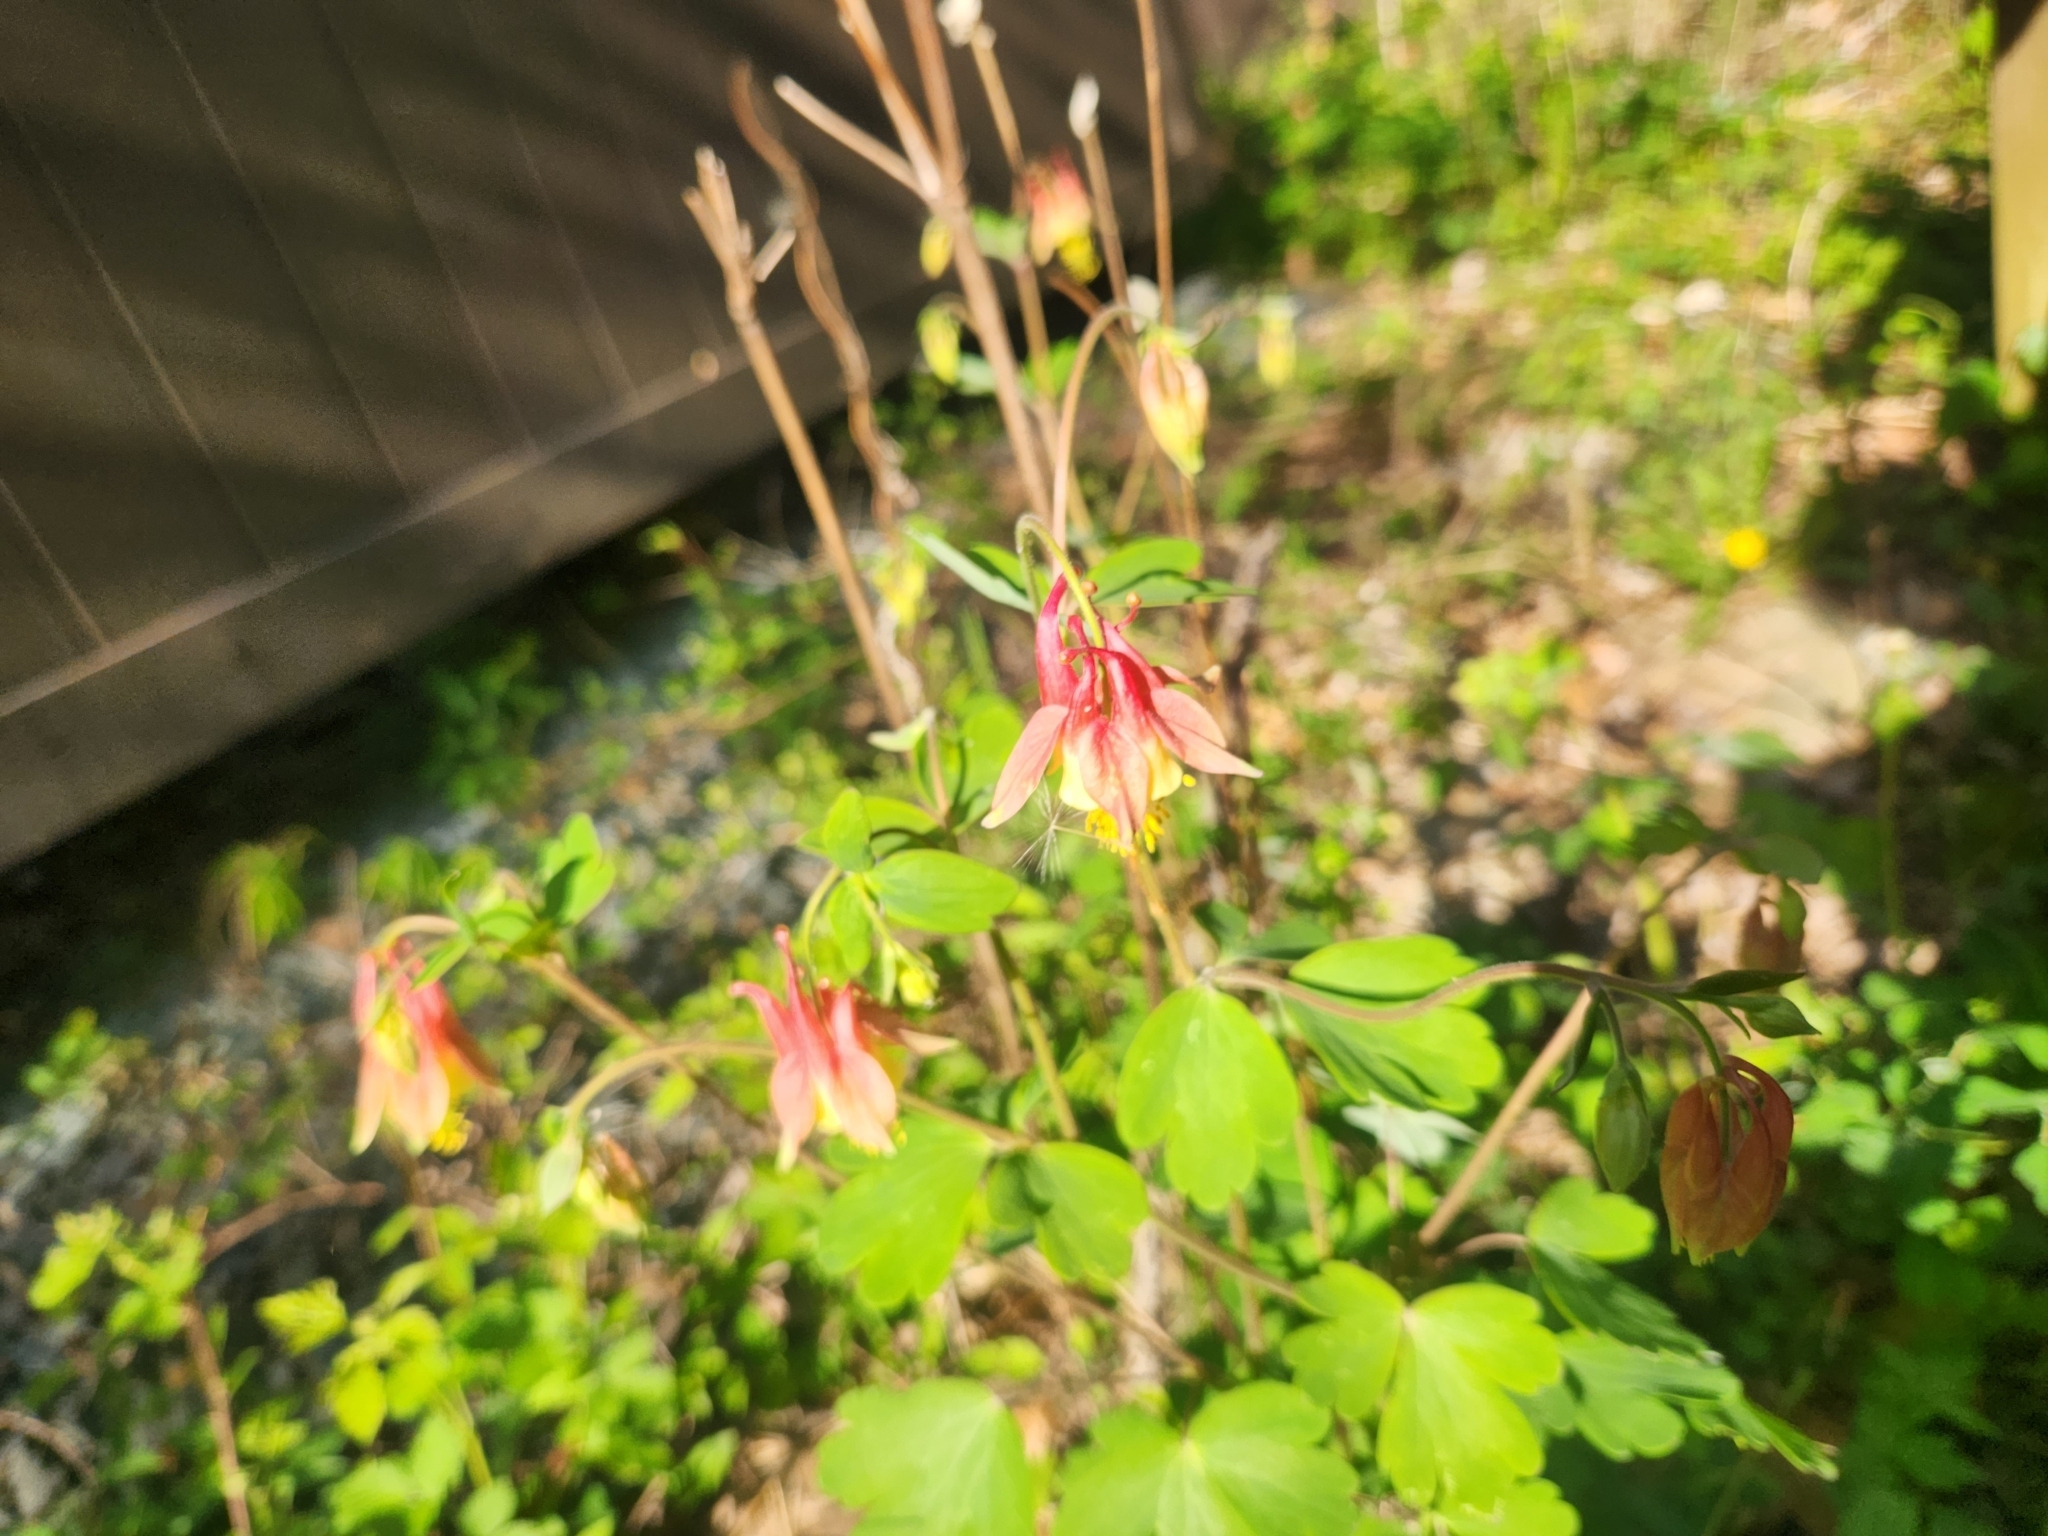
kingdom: Plantae
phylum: Tracheophyta
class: Magnoliopsida
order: Ranunculales
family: Ranunculaceae
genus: Aquilegia
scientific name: Aquilegia canadensis
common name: American columbine
